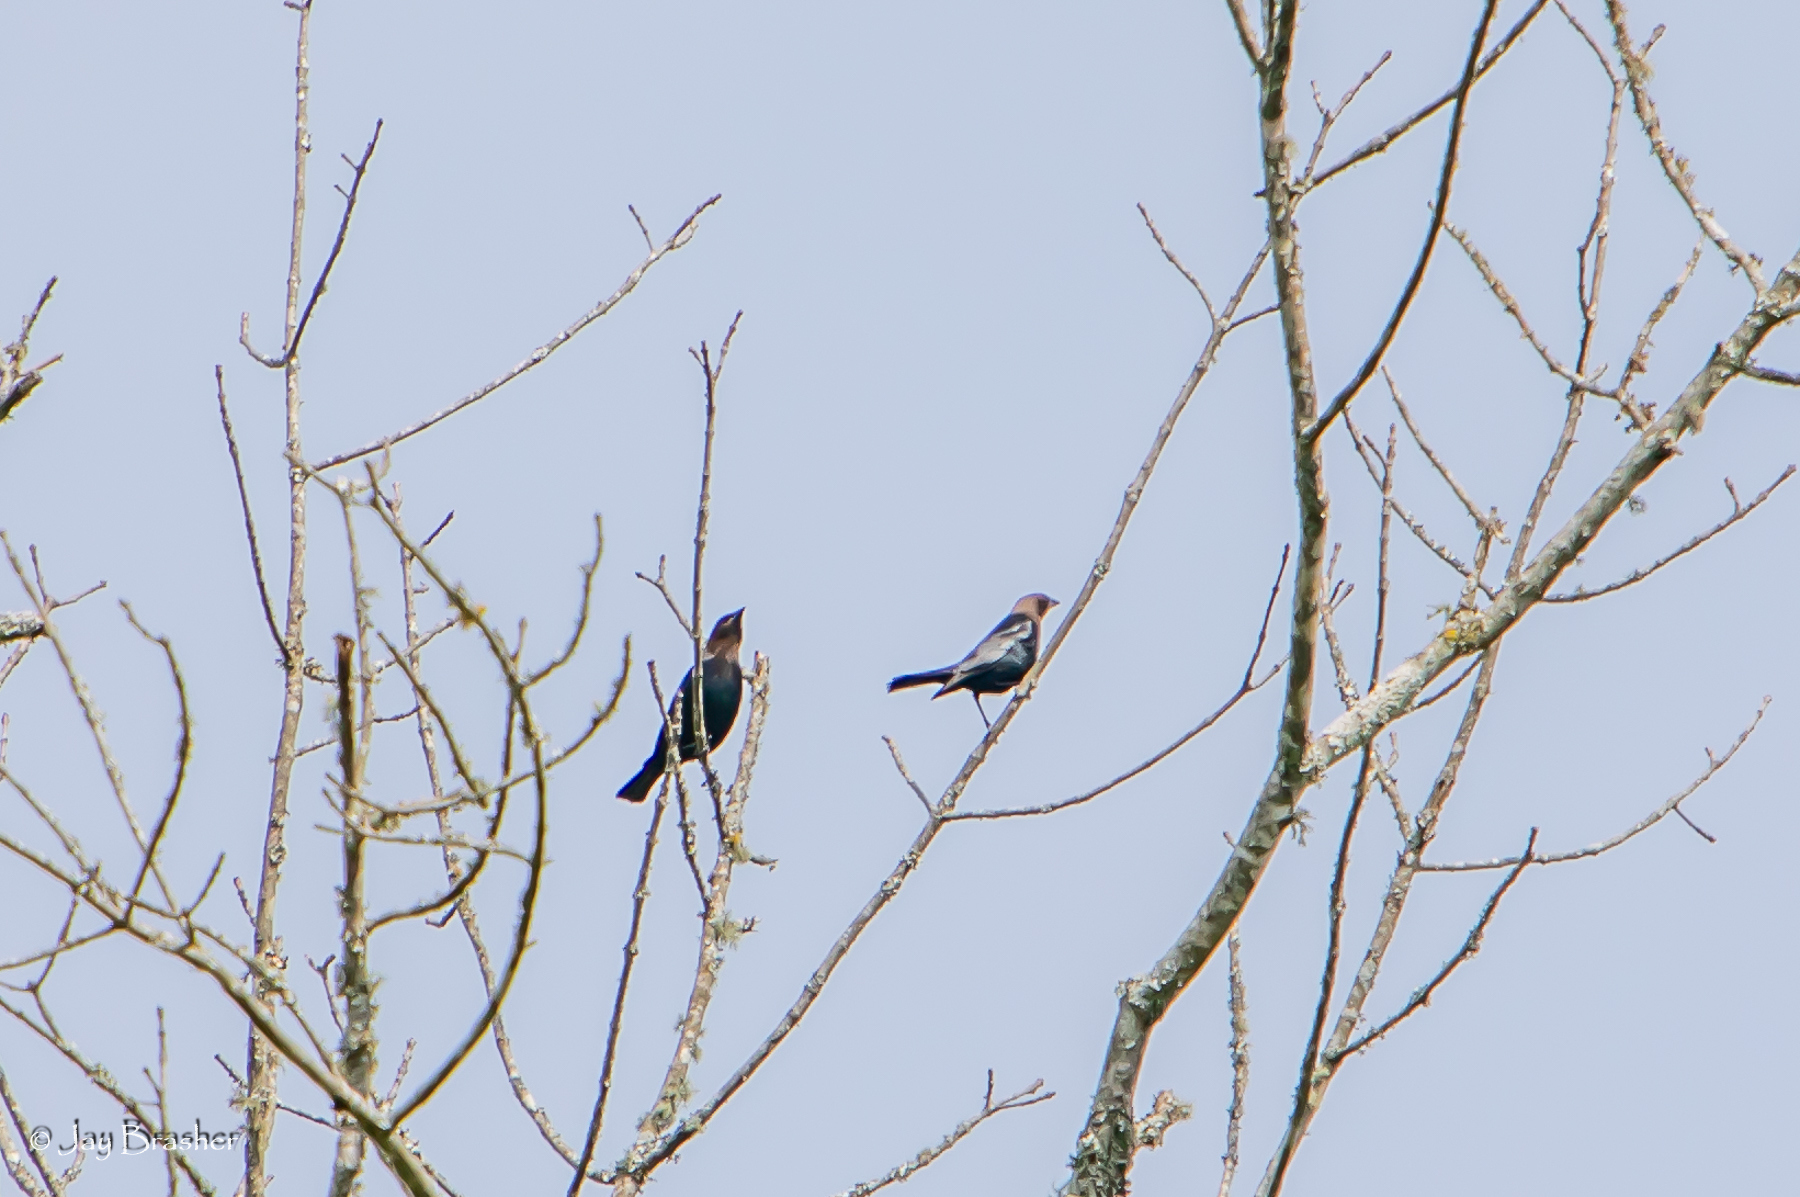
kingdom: Animalia
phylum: Chordata
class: Aves
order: Passeriformes
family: Icteridae
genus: Molothrus
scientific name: Molothrus ater
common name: Brown-headed cowbird
